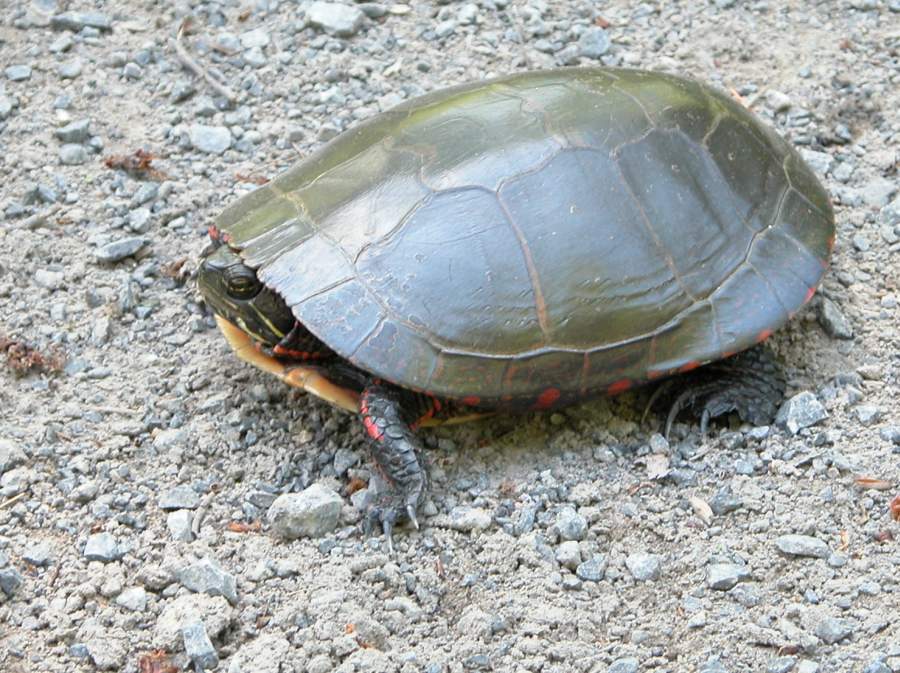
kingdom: Animalia
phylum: Chordata
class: Testudines
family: Emydidae
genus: Chrysemys
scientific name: Chrysemys picta
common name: Painted turtle
